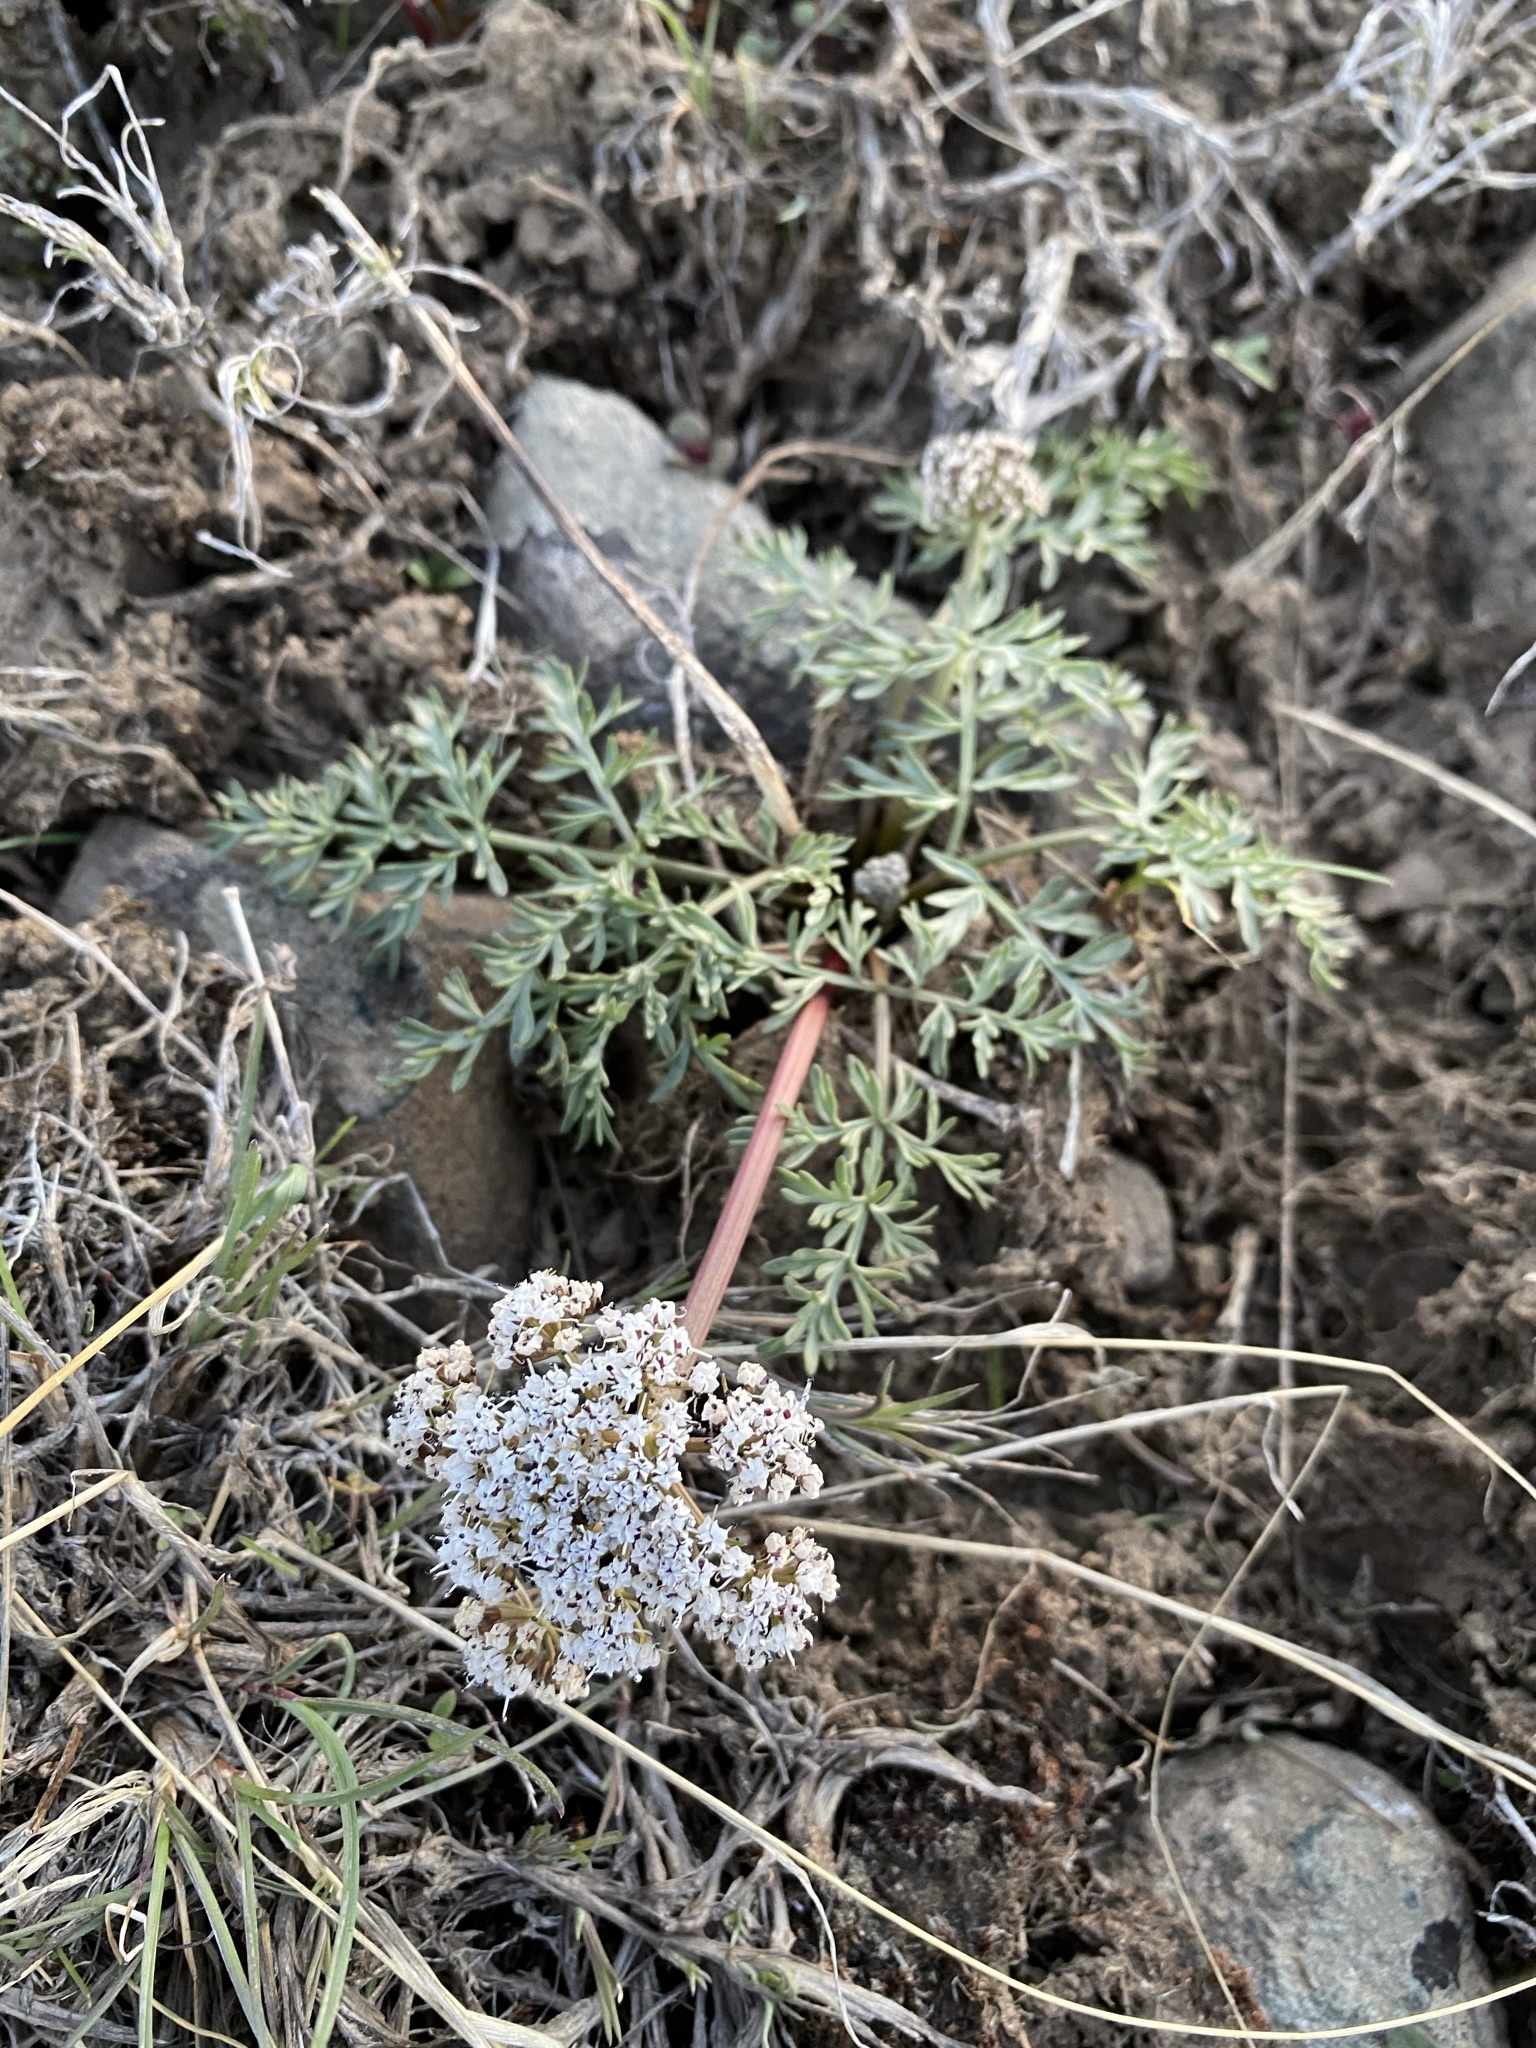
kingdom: Plantae
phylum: Tracheophyta
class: Magnoliopsida
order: Apiales
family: Apiaceae
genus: Lomatium
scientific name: Lomatium canbyi
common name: Chucklusa
